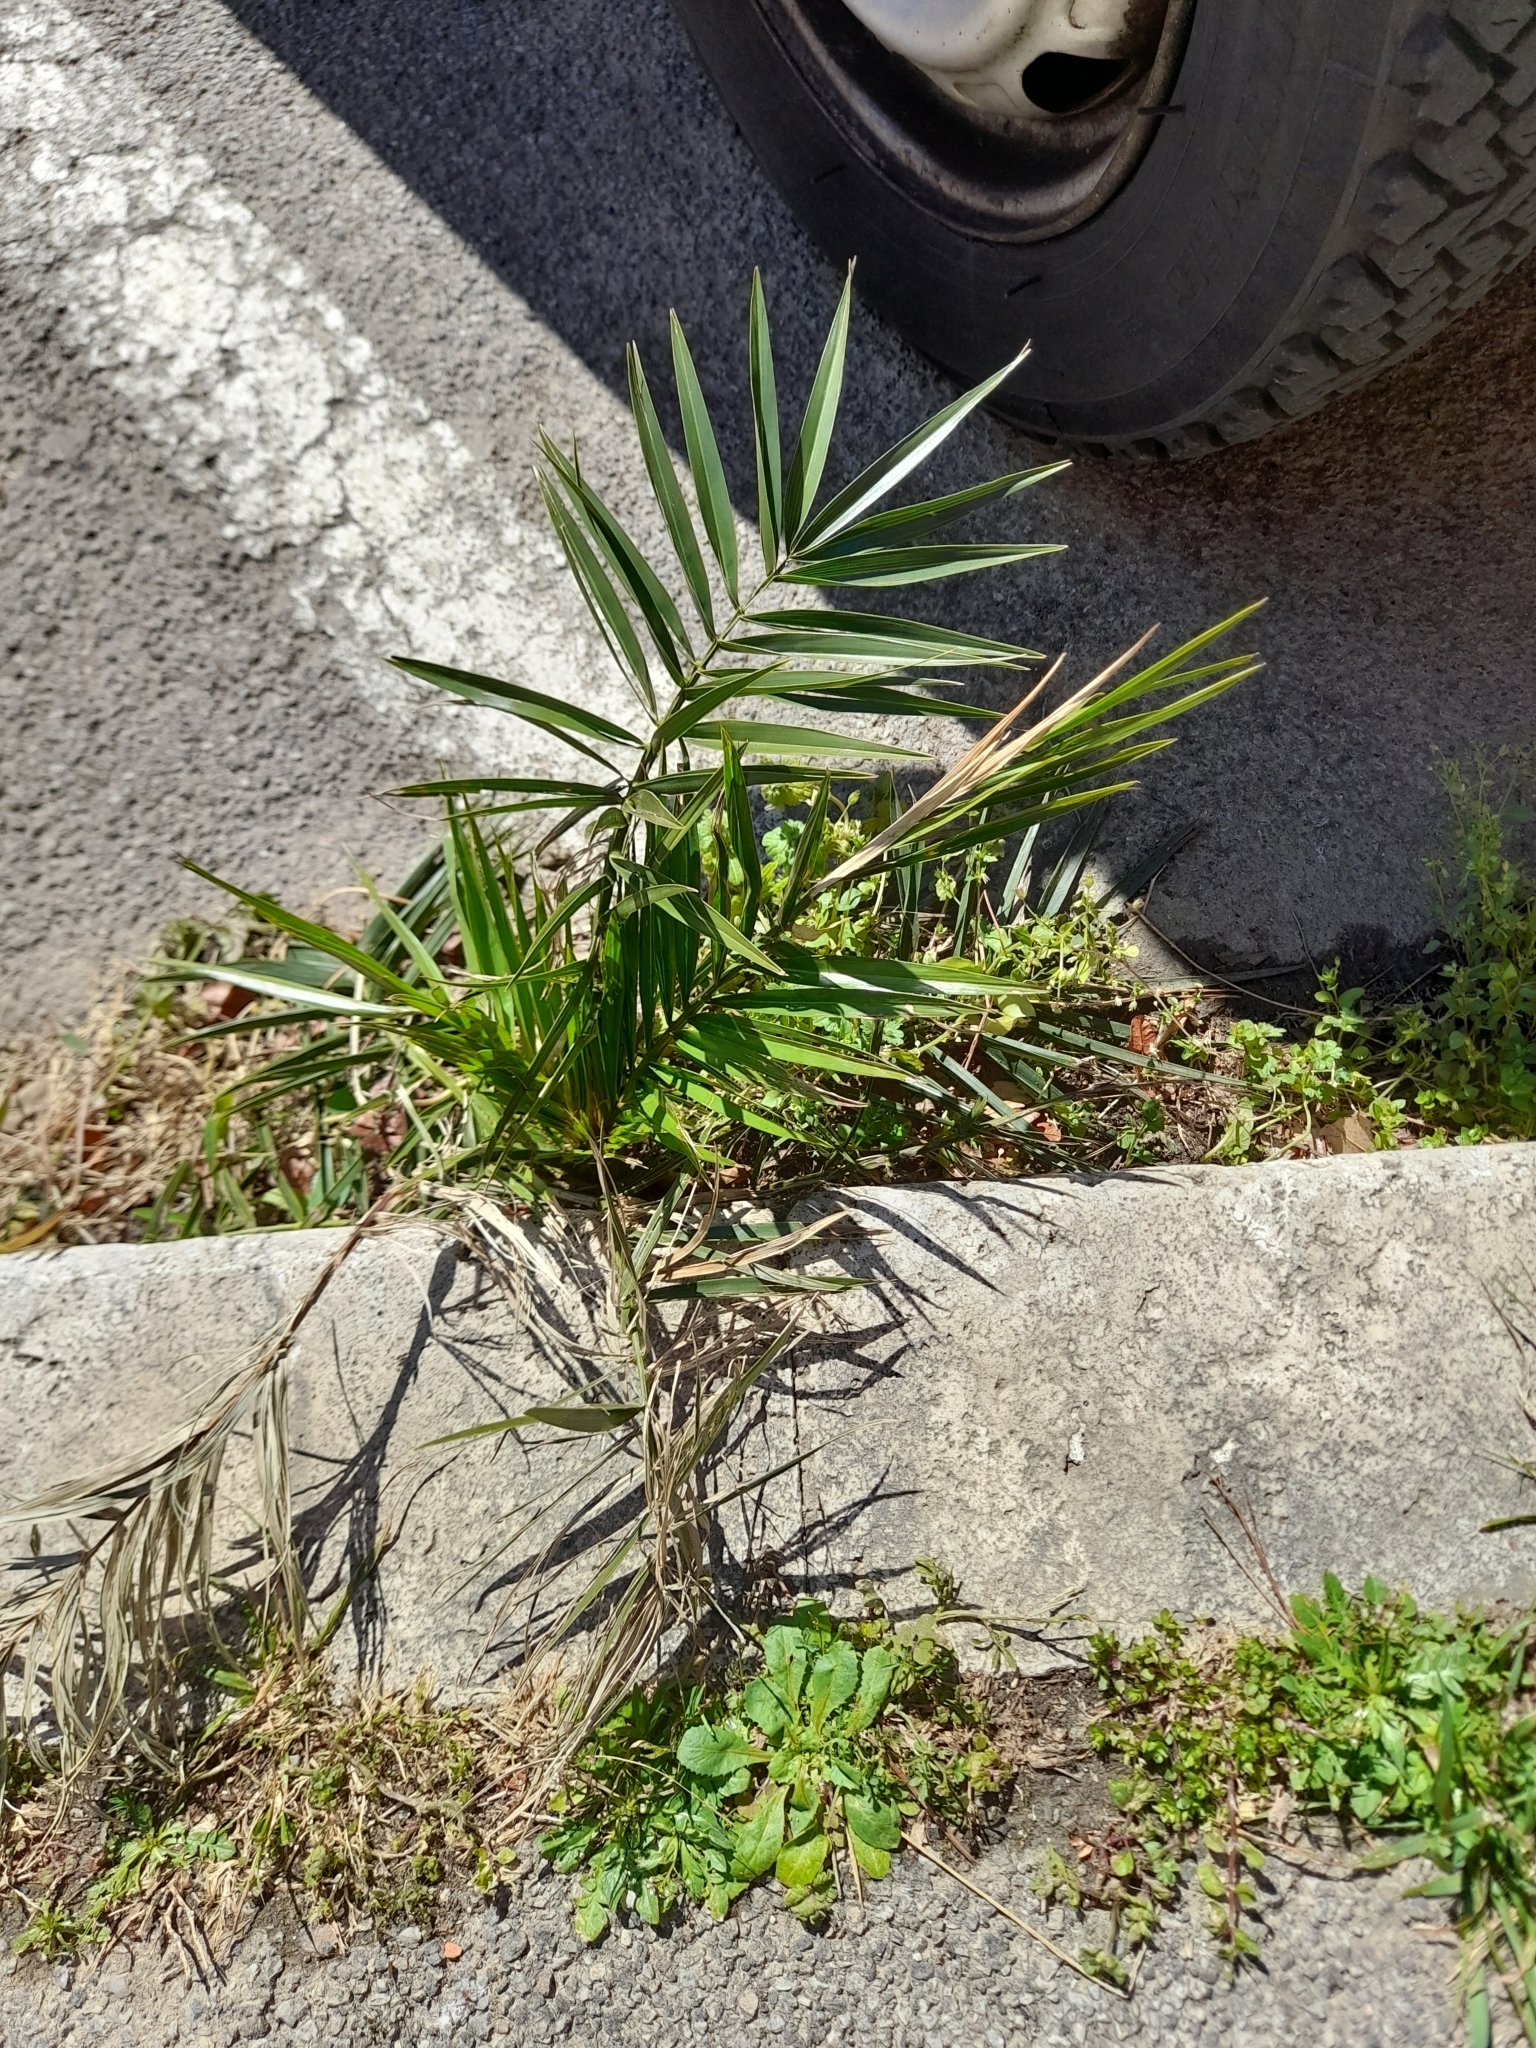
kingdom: Plantae
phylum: Tracheophyta
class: Liliopsida
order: Arecales
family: Arecaceae
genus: Phoenix
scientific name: Phoenix canariensis
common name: Canary island date palm
